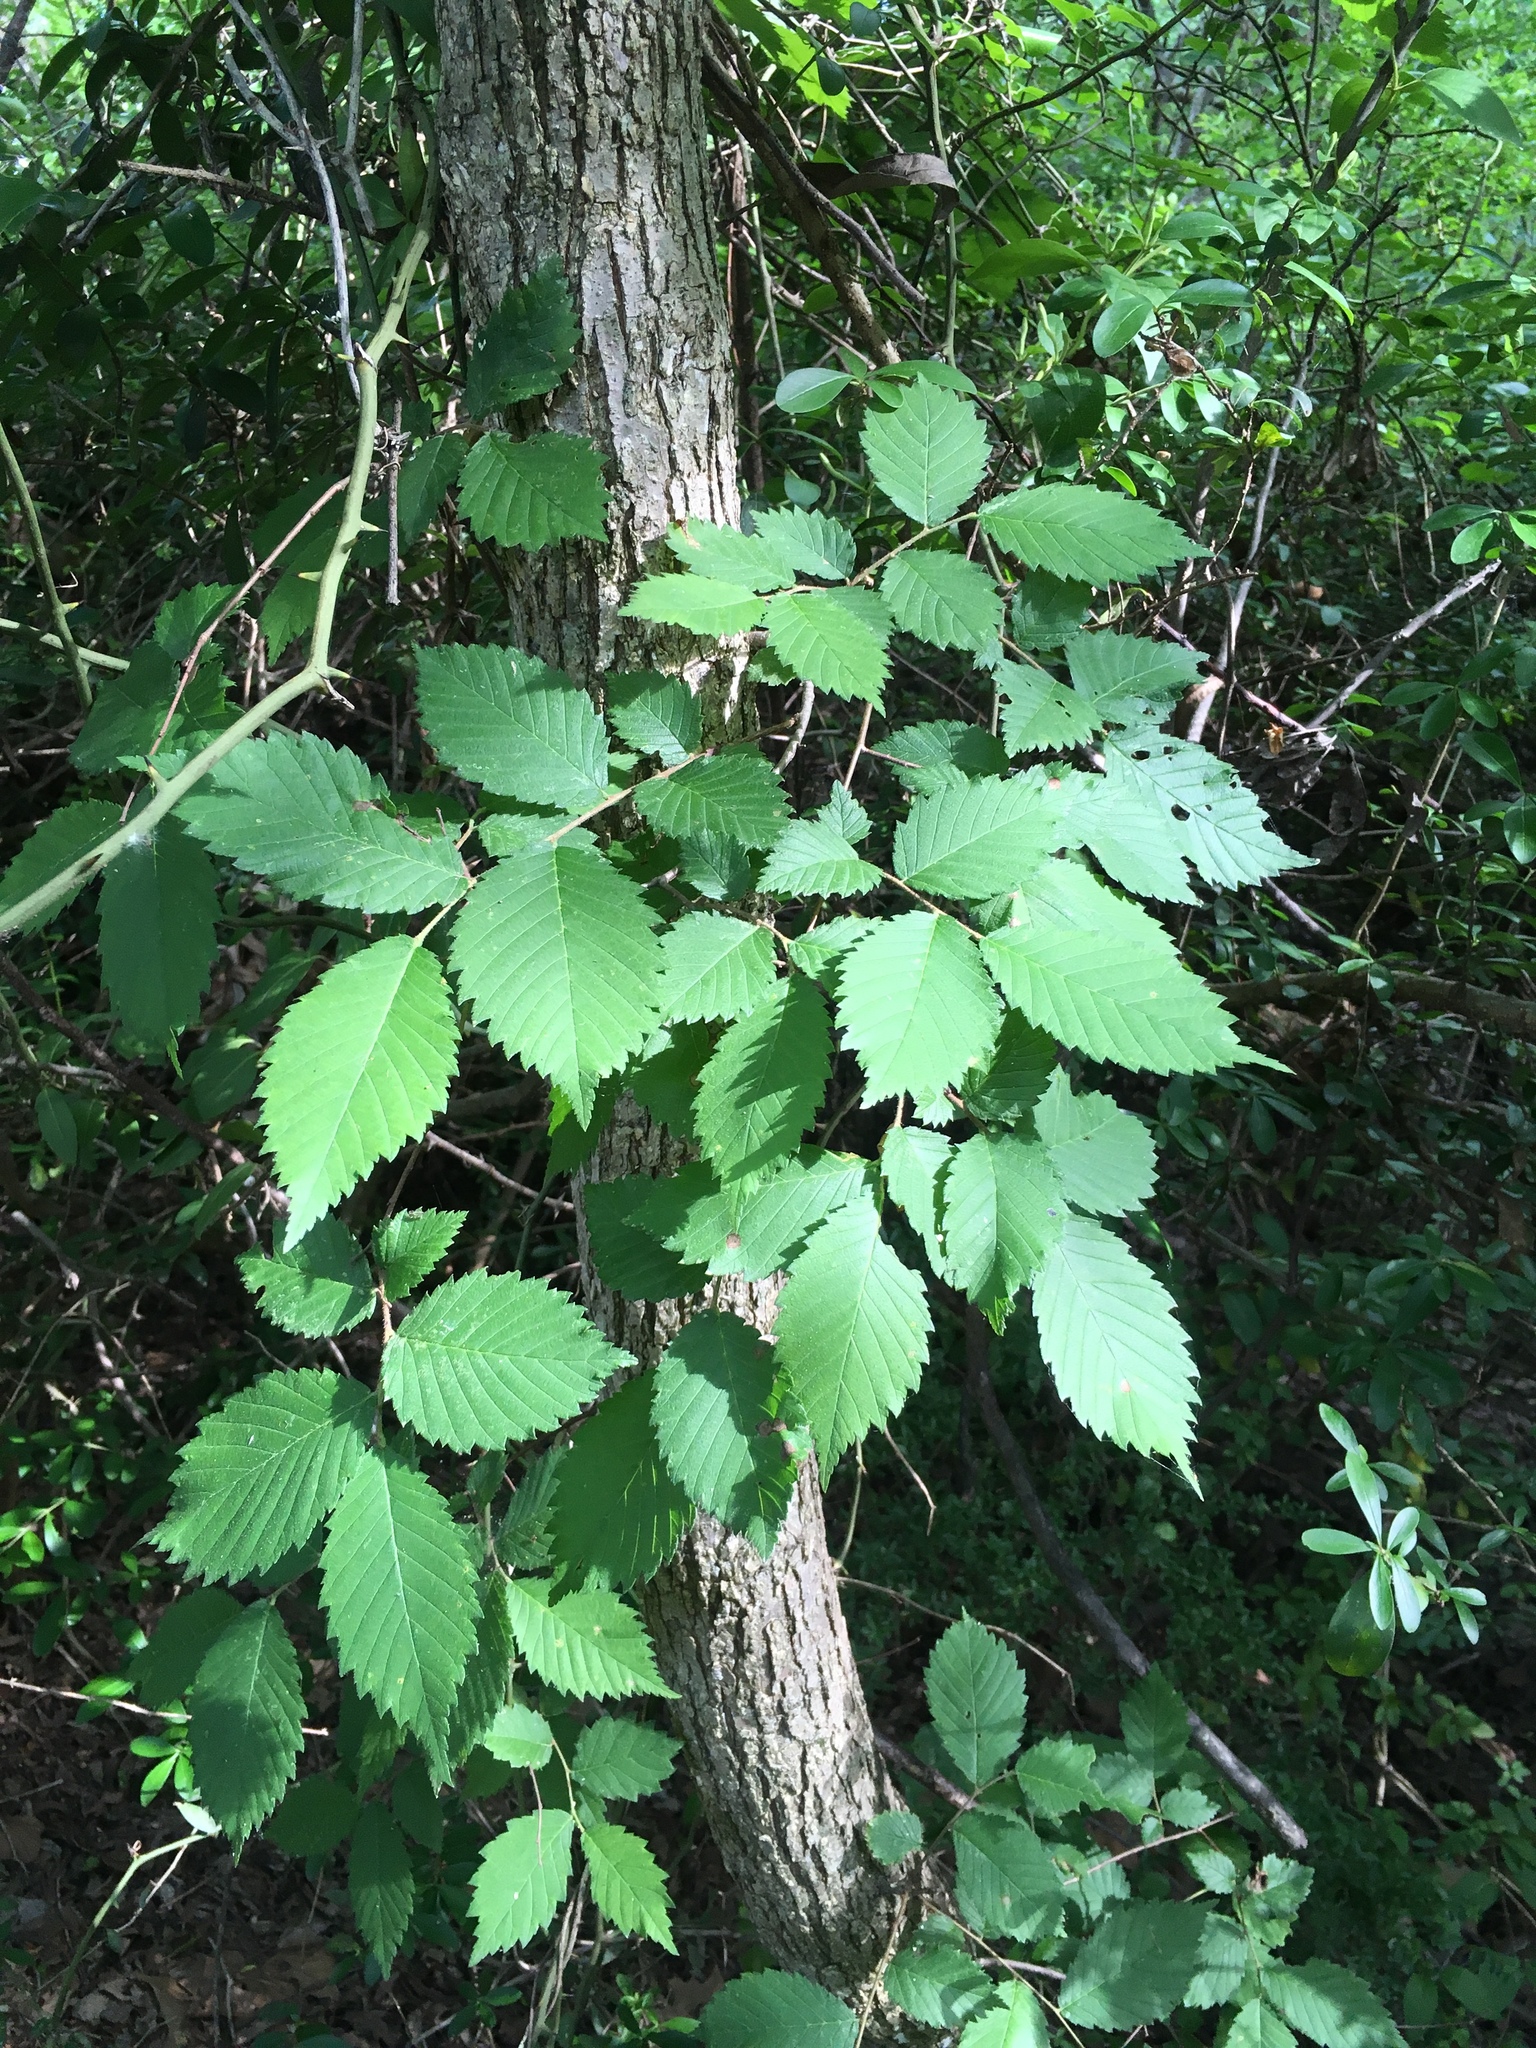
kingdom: Plantae
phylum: Tracheophyta
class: Magnoliopsida
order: Rosales
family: Ulmaceae
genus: Ulmus
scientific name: Ulmus americana
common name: American elm
